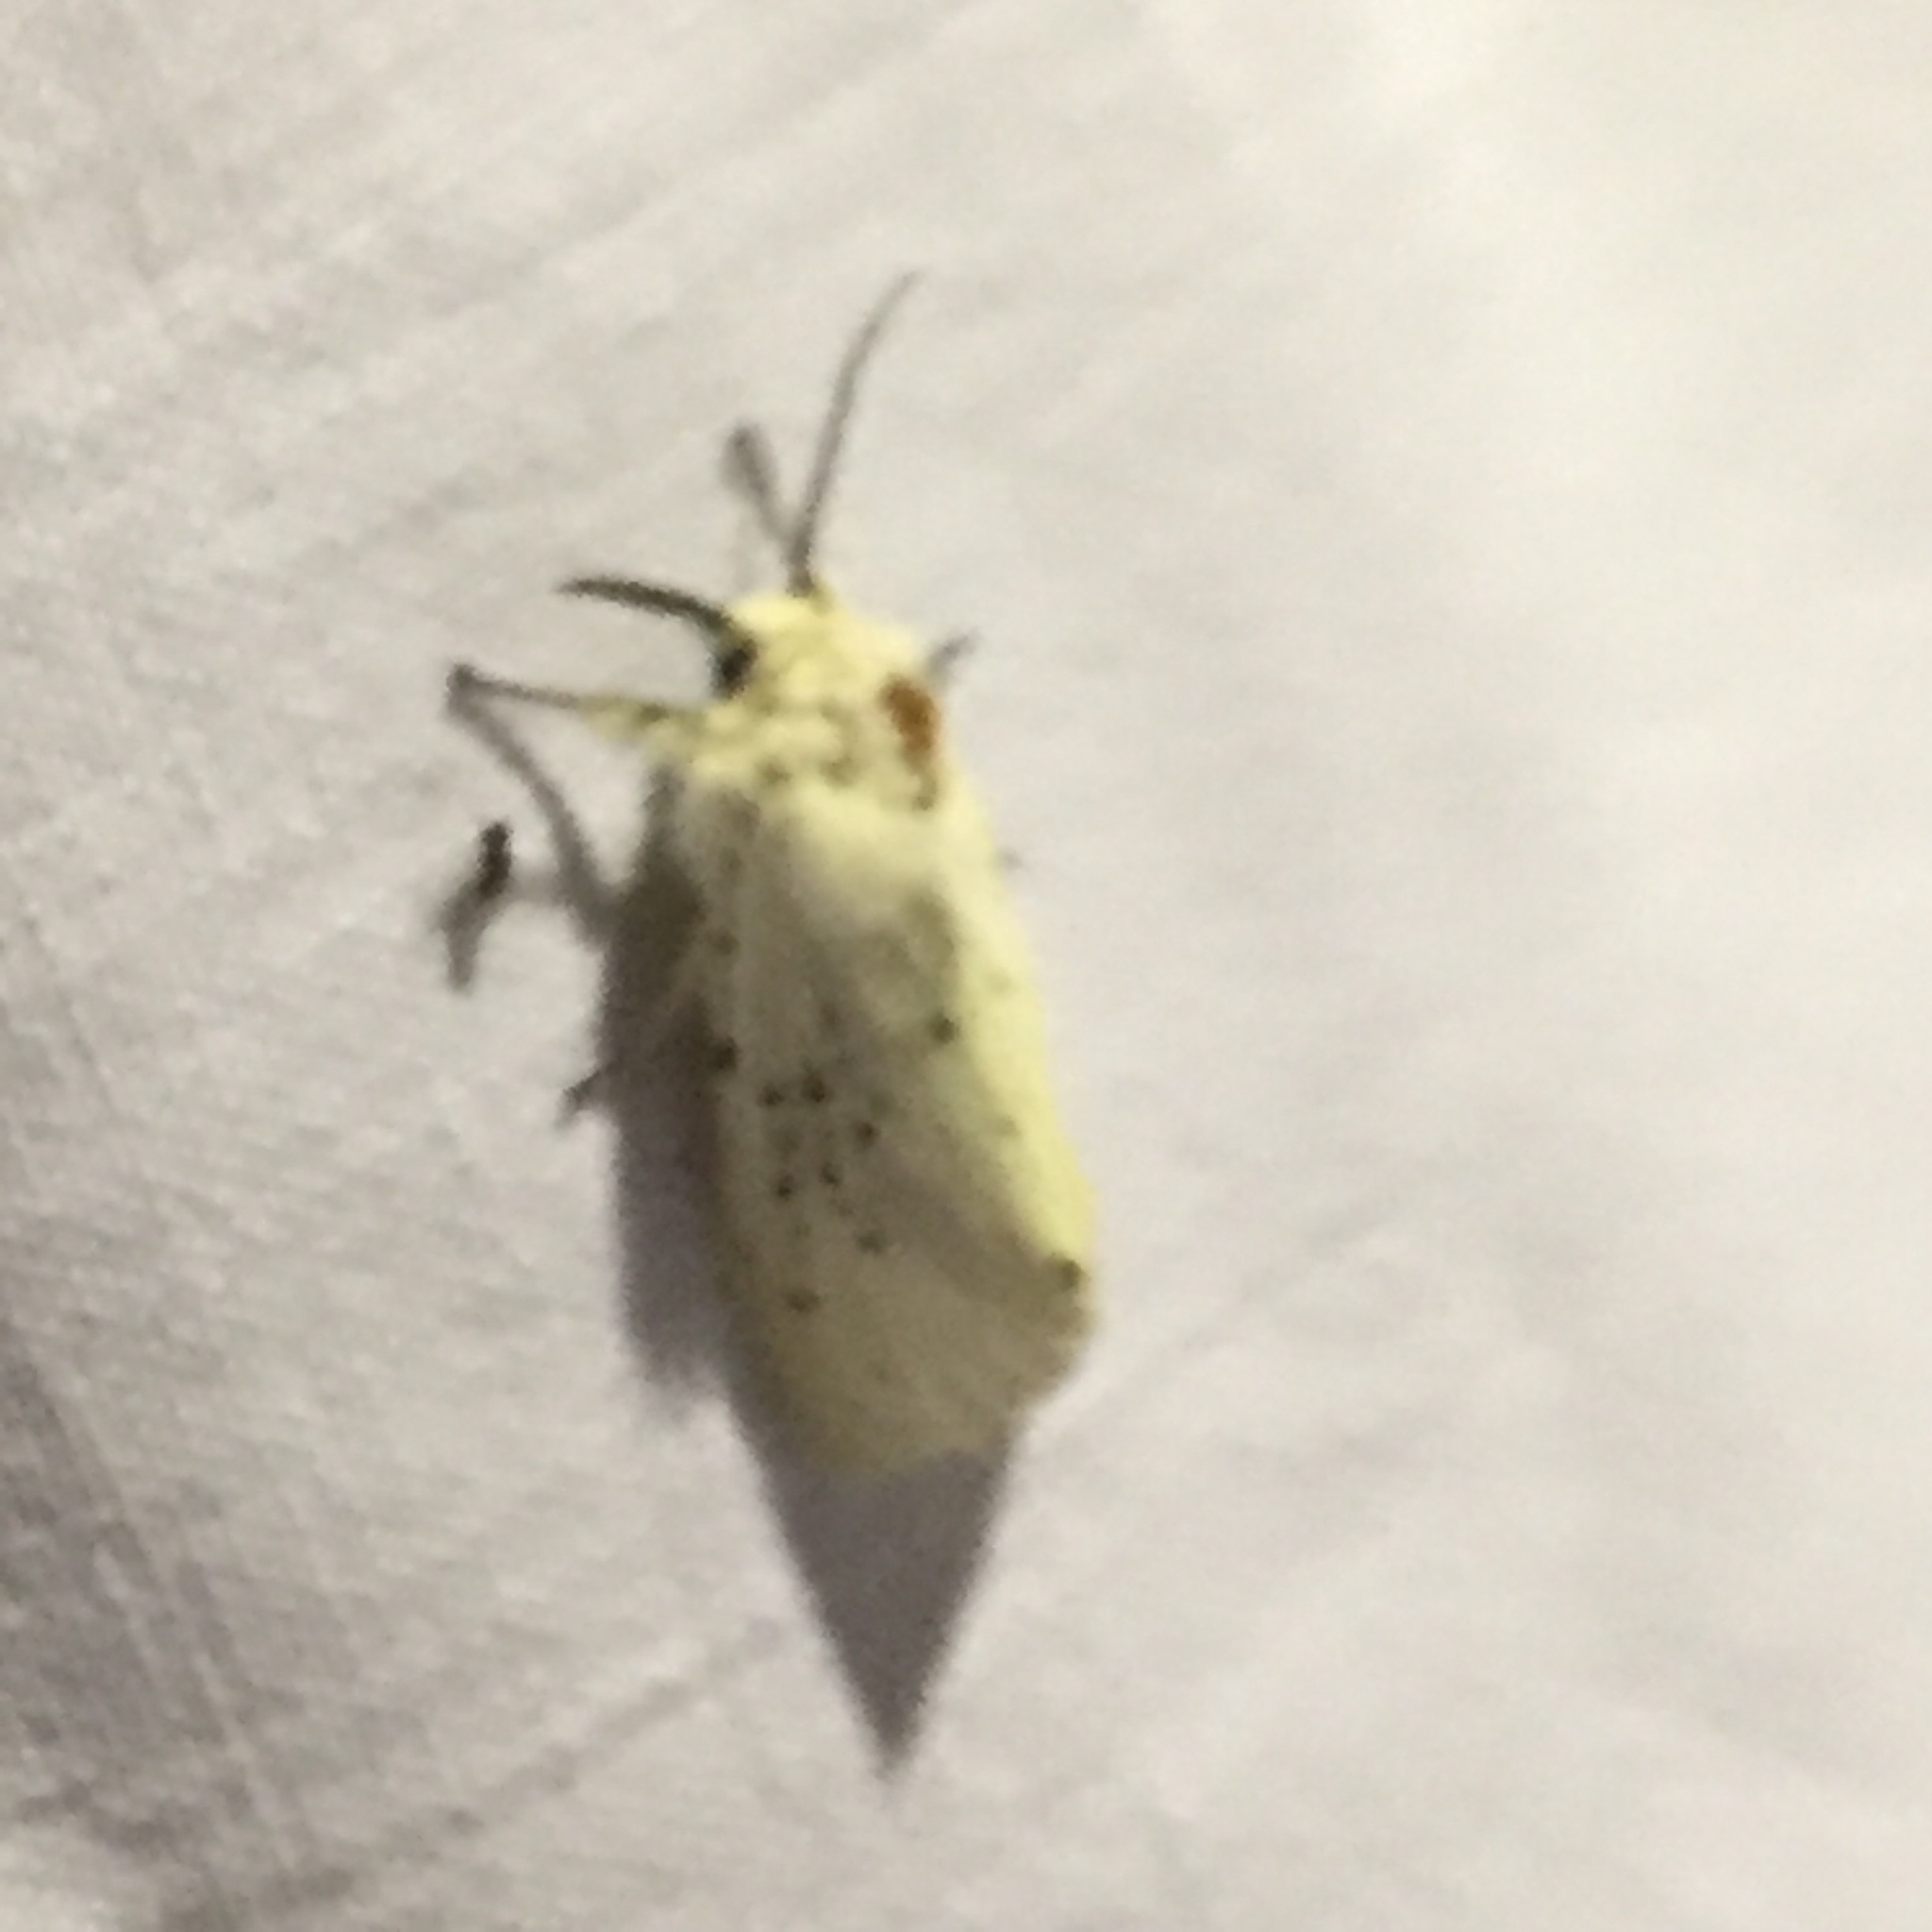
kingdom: Animalia
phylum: Arthropoda
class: Insecta
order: Lepidoptera
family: Erebidae
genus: Spilosoma
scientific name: Spilosoma lubricipeda
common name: White ermine
